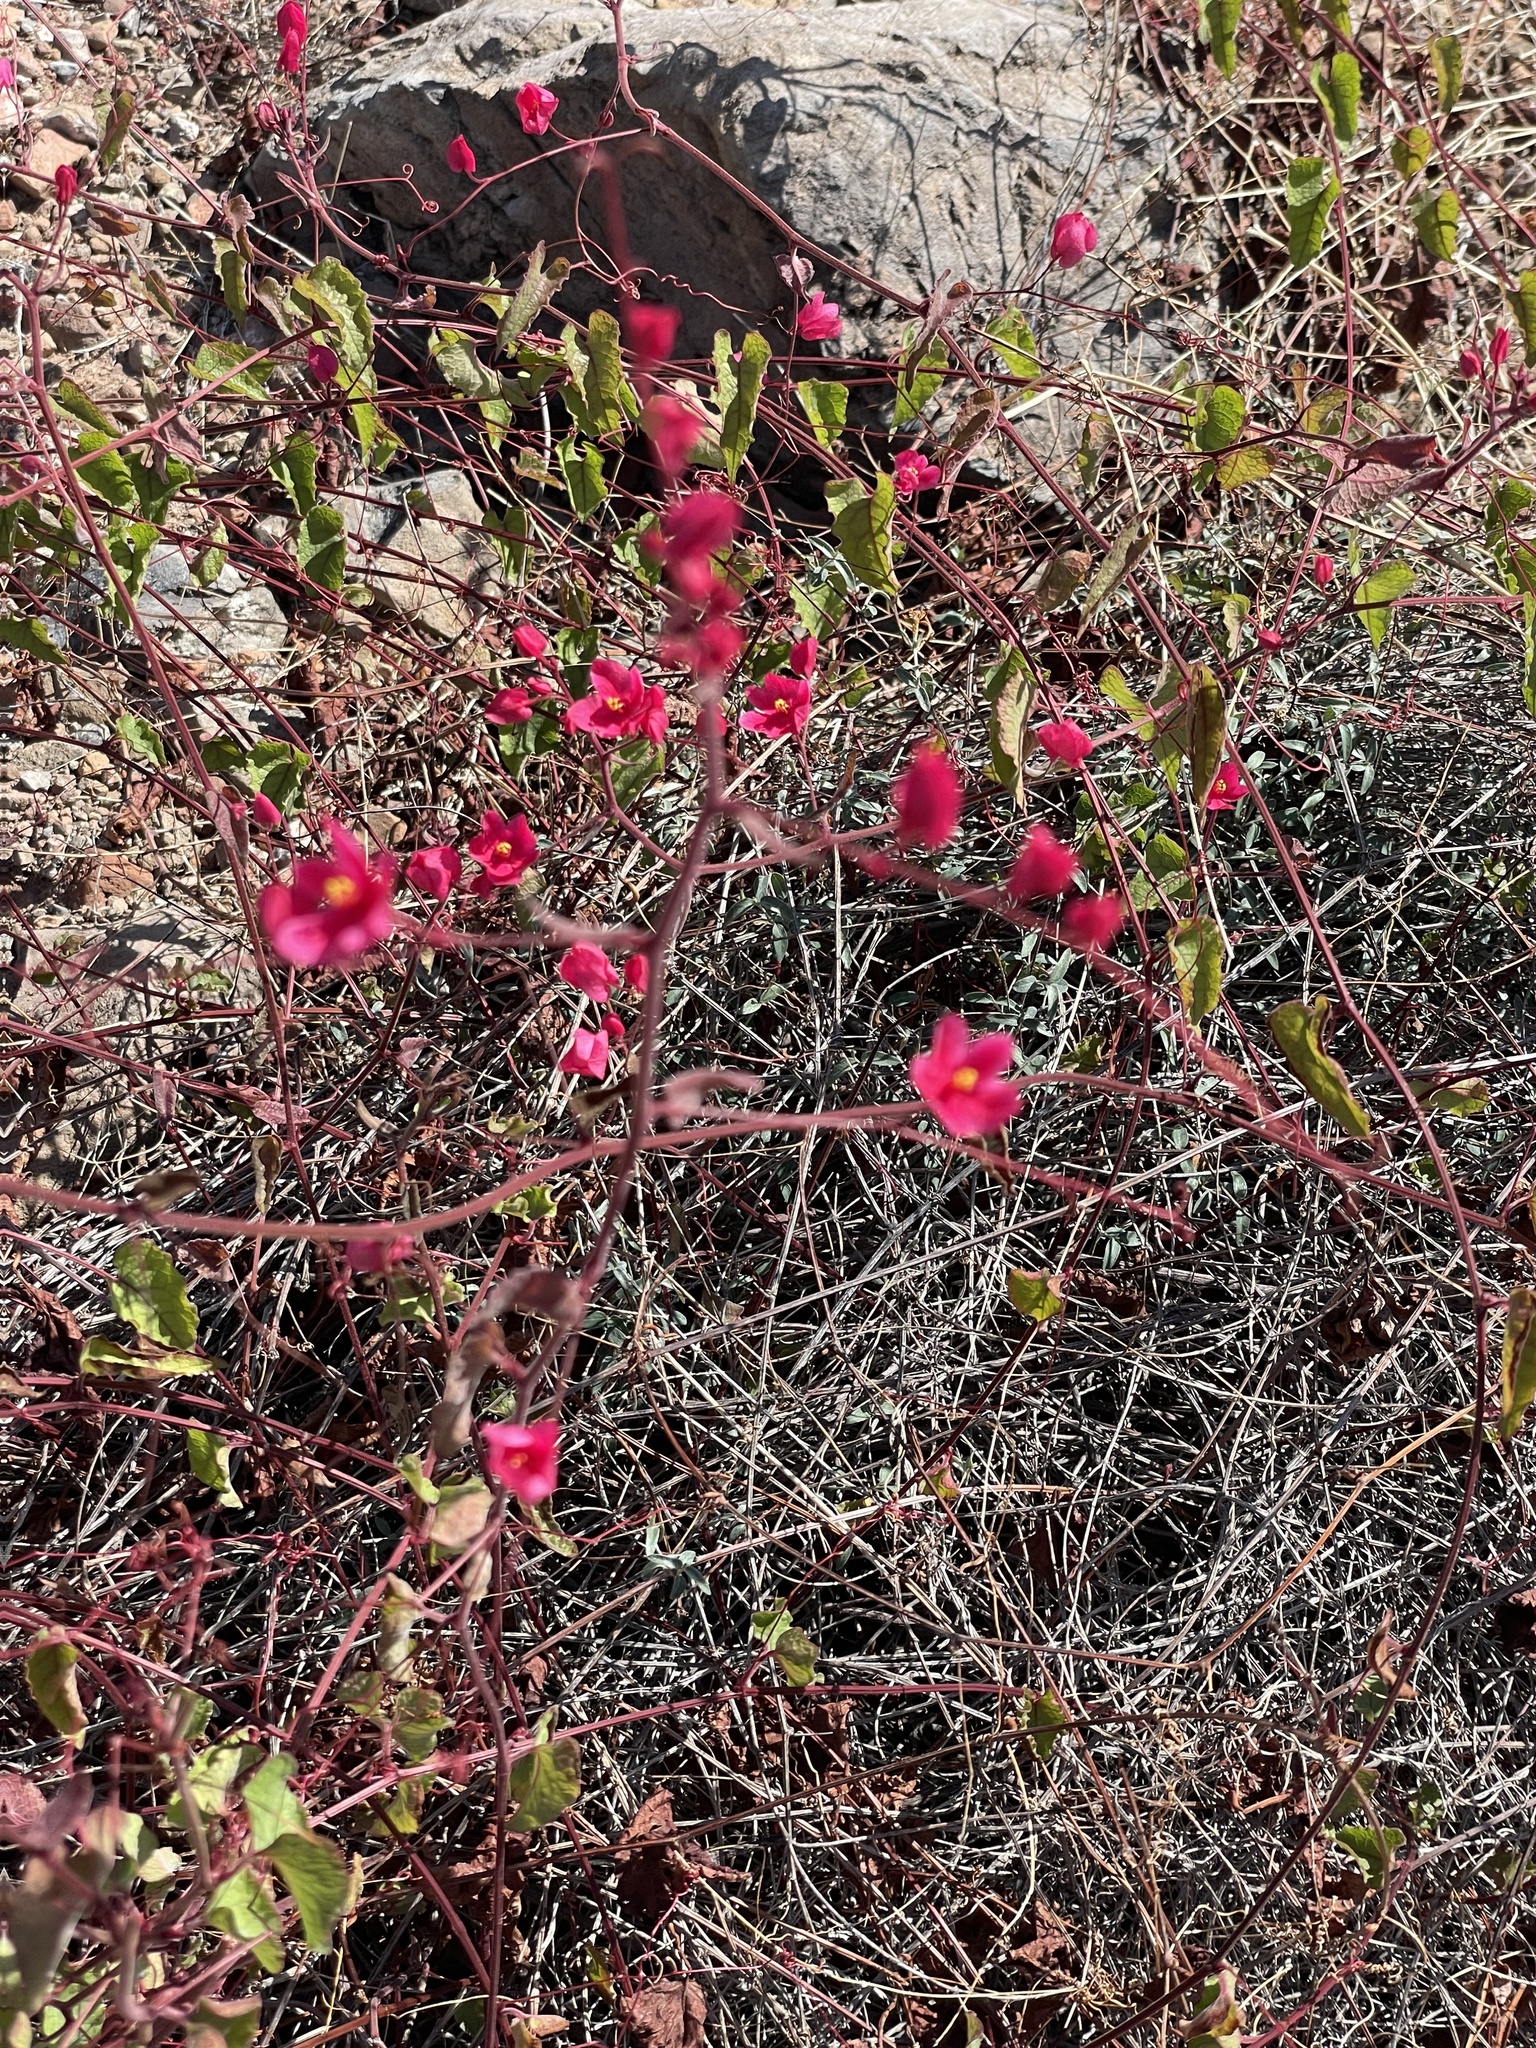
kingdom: Plantae
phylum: Tracheophyta
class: Magnoliopsida
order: Caryophyllales
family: Polygonaceae
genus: Antigonon
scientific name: Antigonon leptopus
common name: Coral vine
